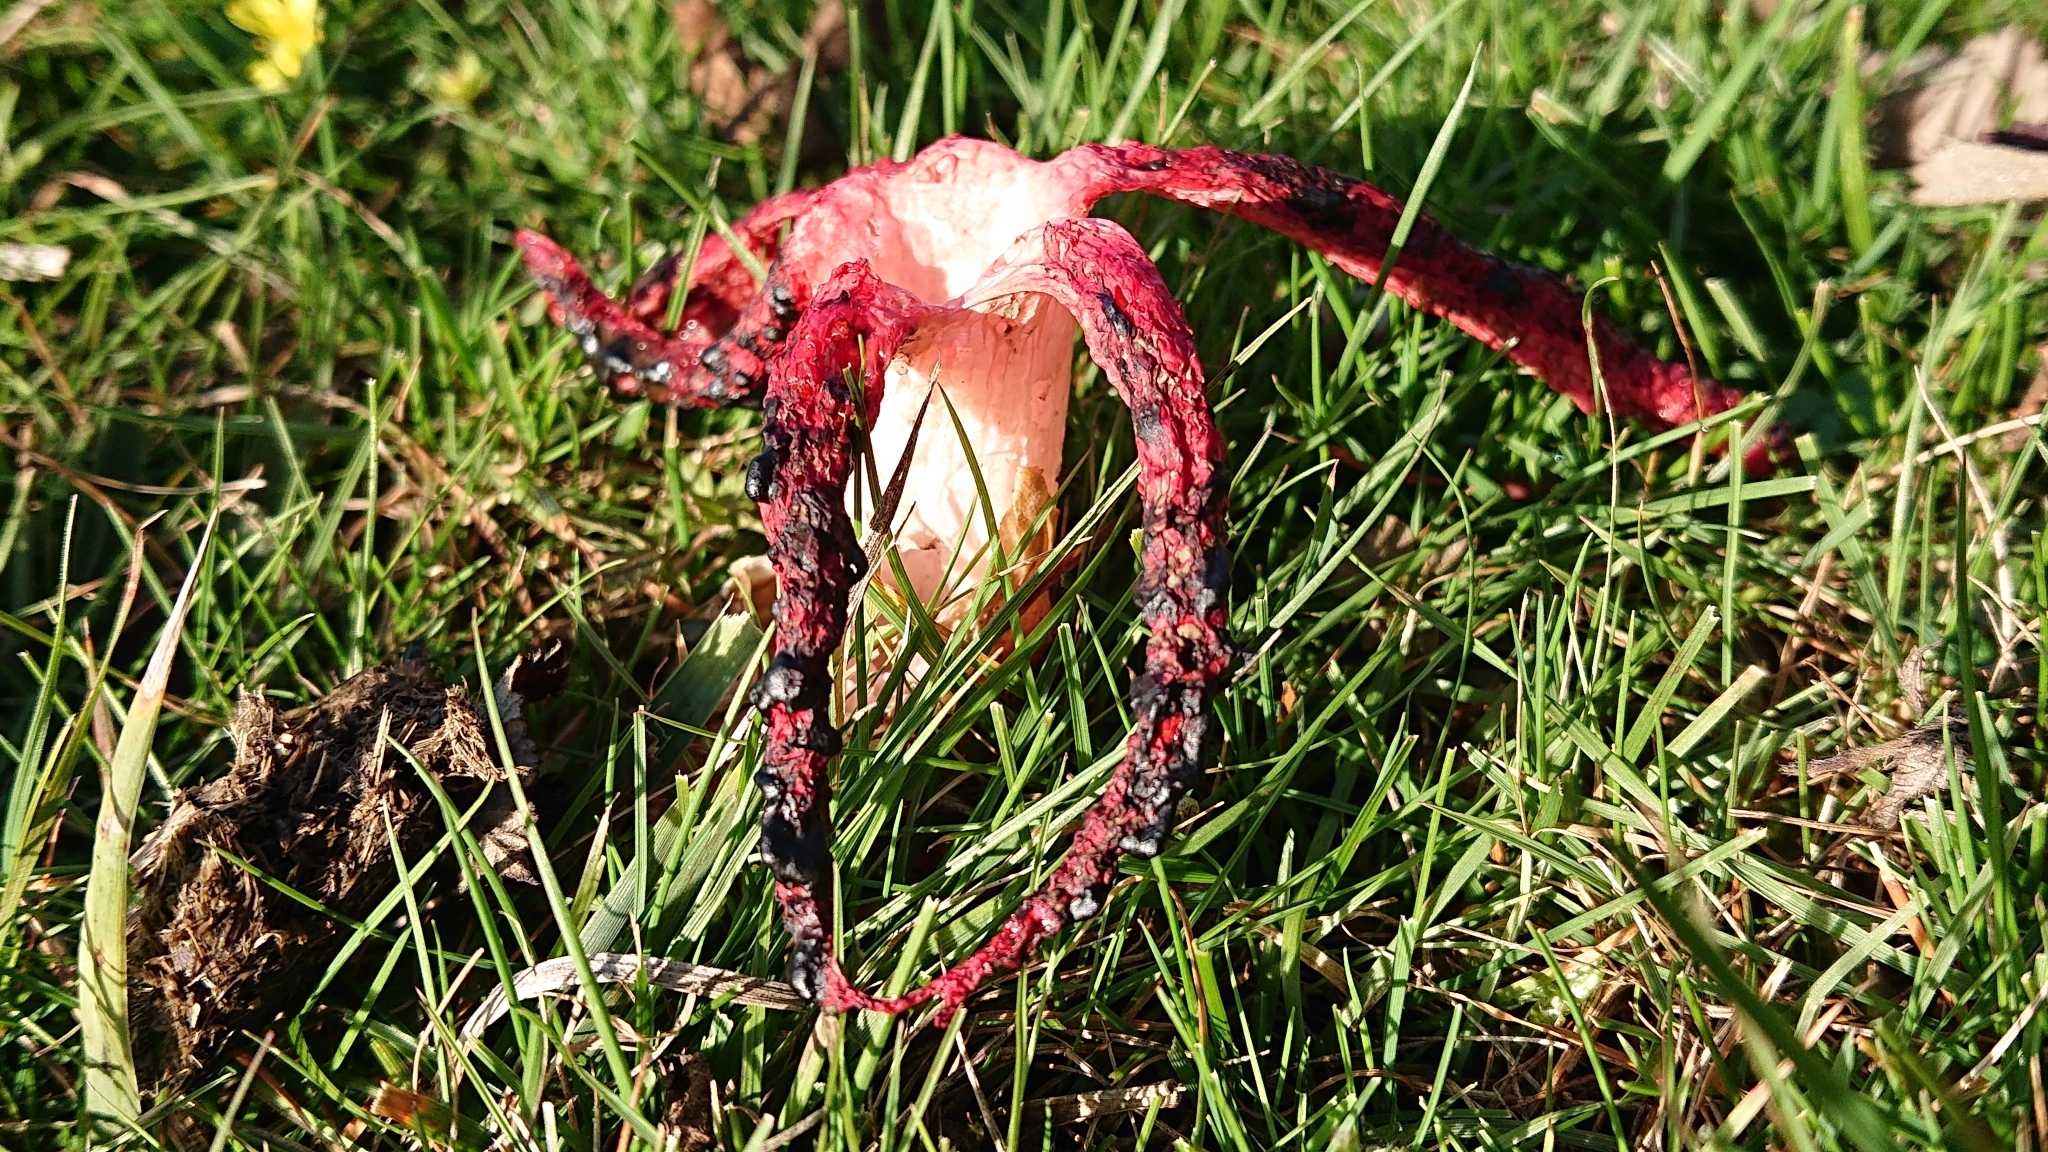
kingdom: Fungi
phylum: Basidiomycota
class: Agaricomycetes
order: Phallales
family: Phallaceae
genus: Clathrus
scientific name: Clathrus archeri
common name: Devil's fingers
